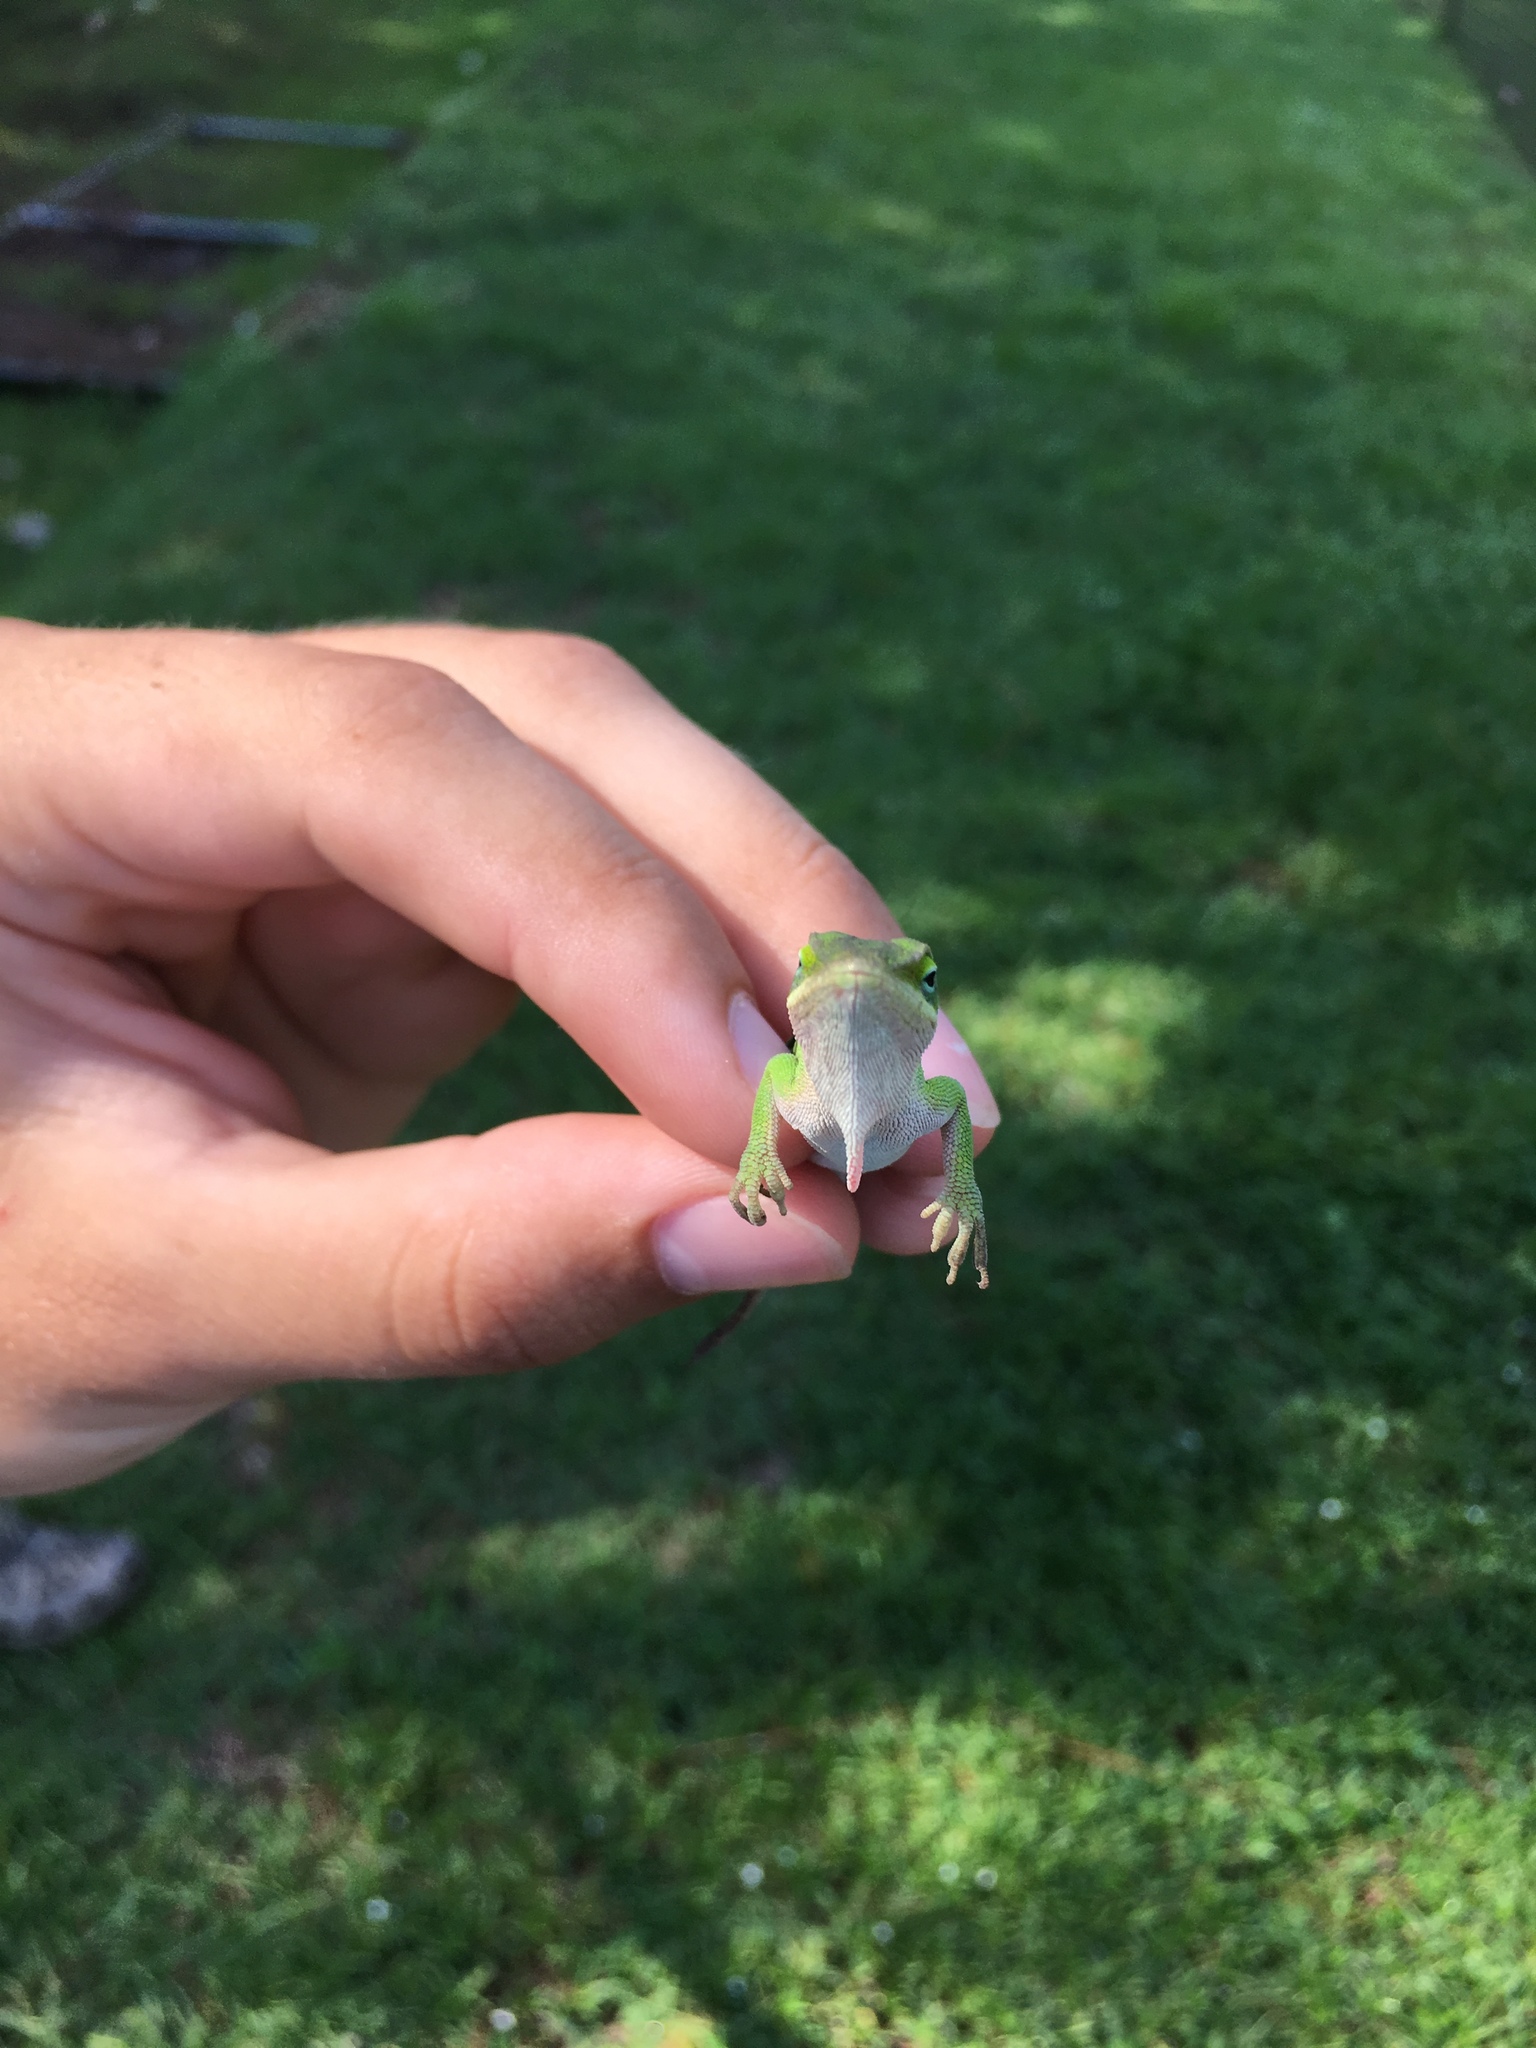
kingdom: Animalia
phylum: Chordata
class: Squamata
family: Dactyloidae
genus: Anolis
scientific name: Anolis carolinensis
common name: Green anole
